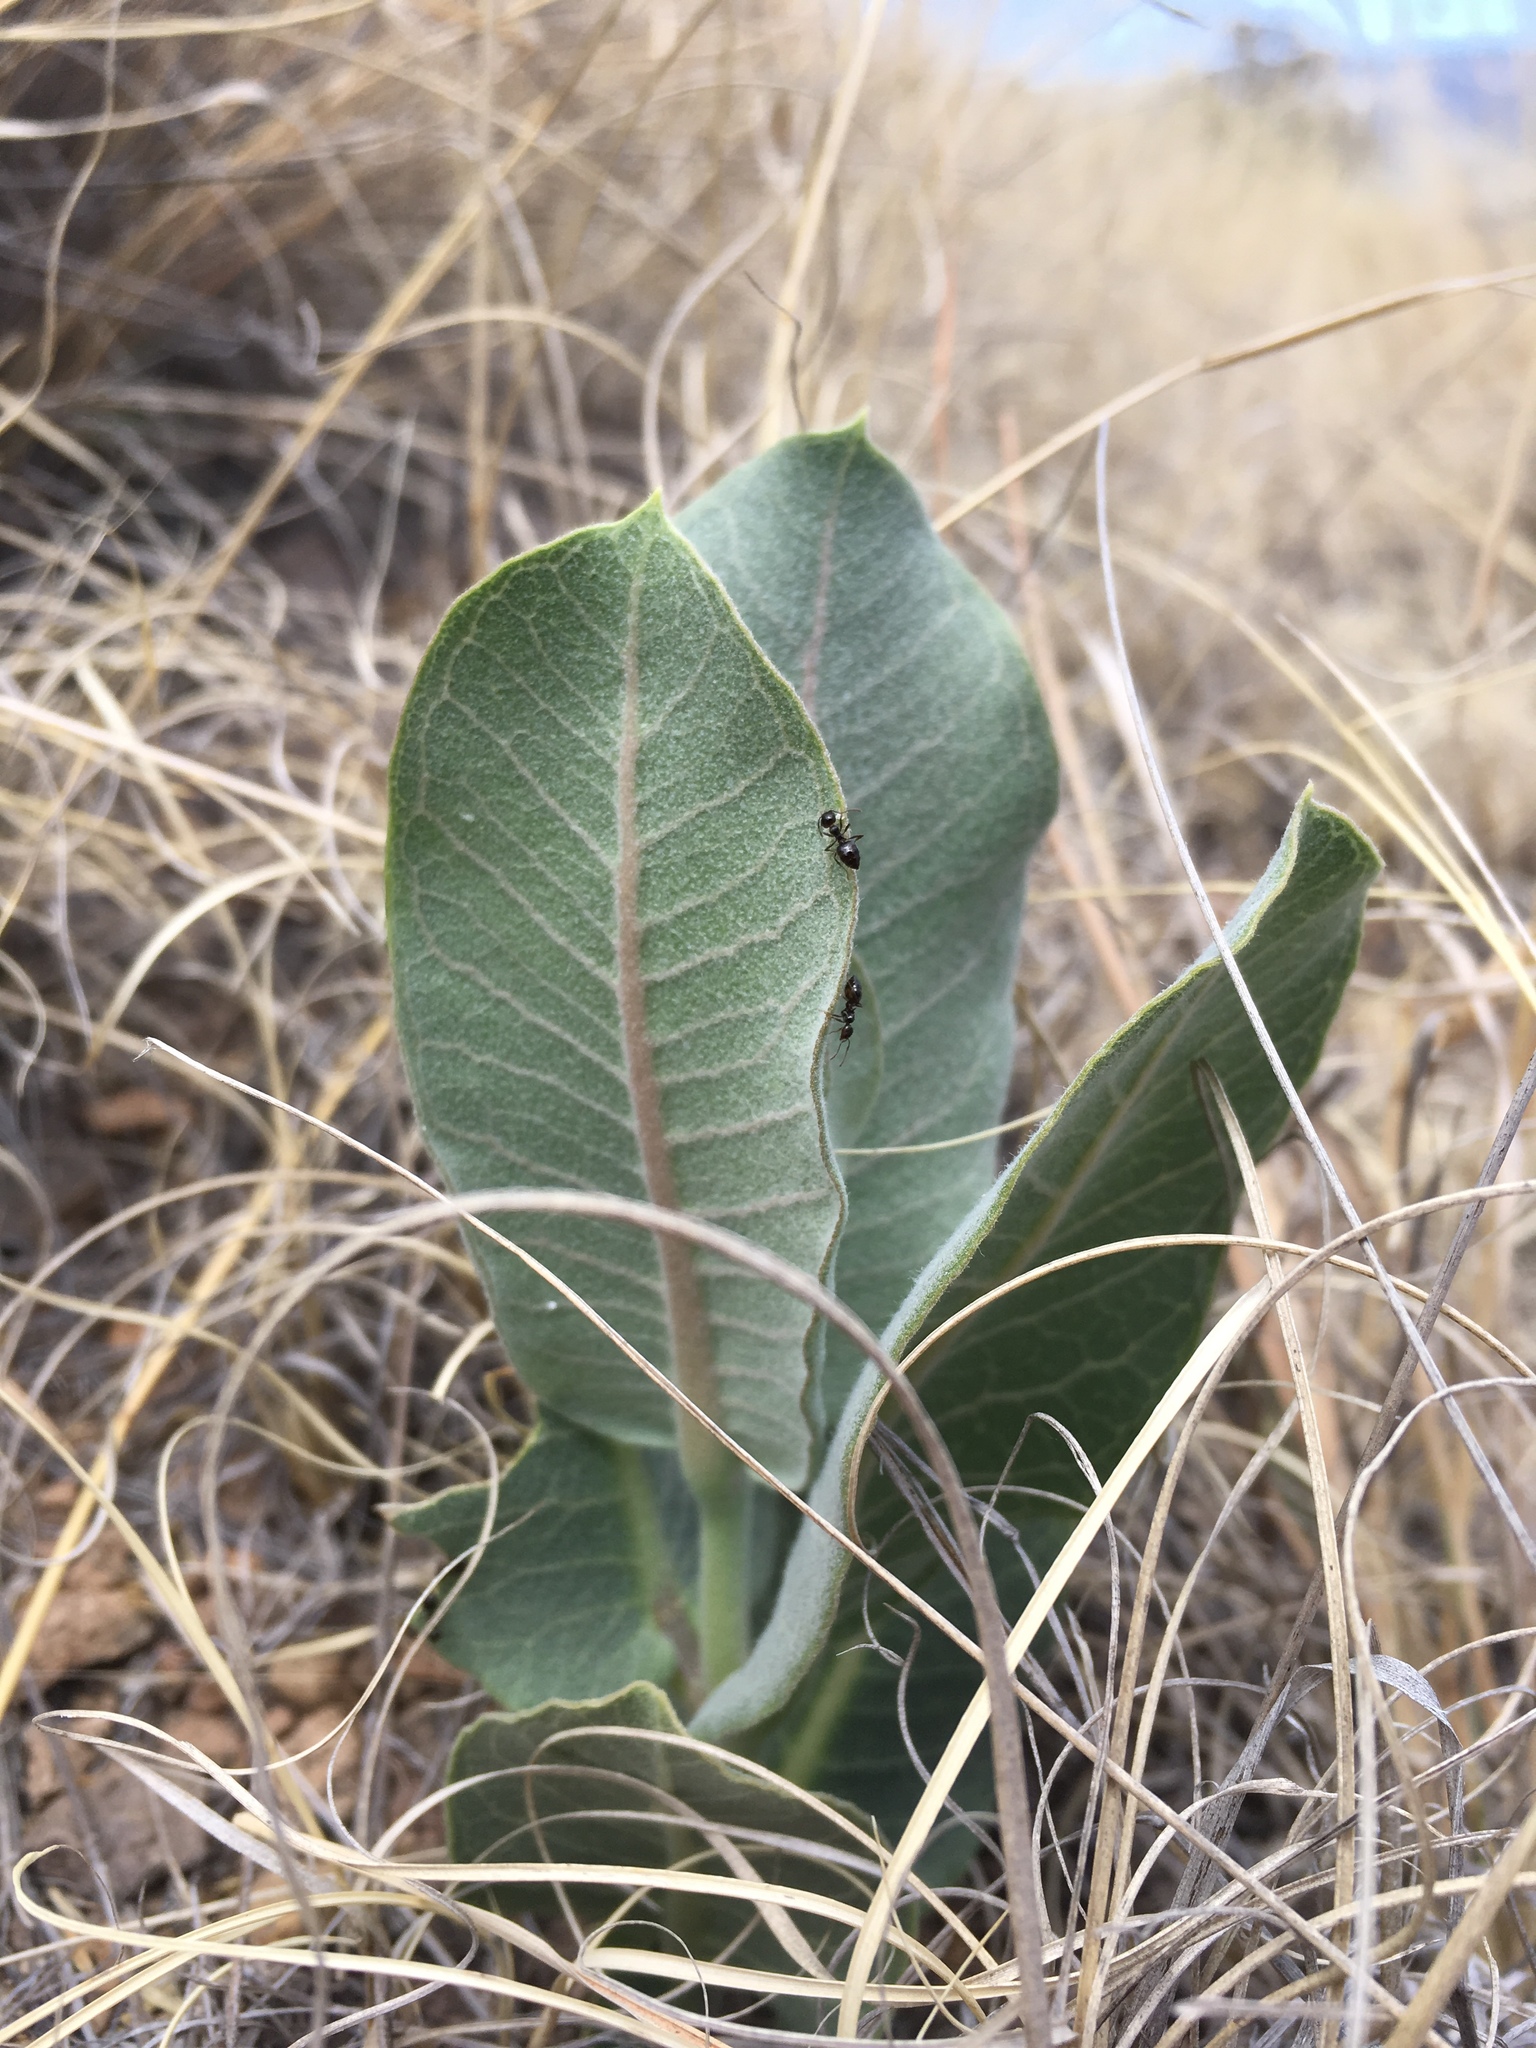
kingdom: Plantae
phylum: Tracheophyta
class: Magnoliopsida
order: Gentianales
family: Apocynaceae
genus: Asclepias
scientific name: Asclepias latifolia
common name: Broadleaf milkweed
